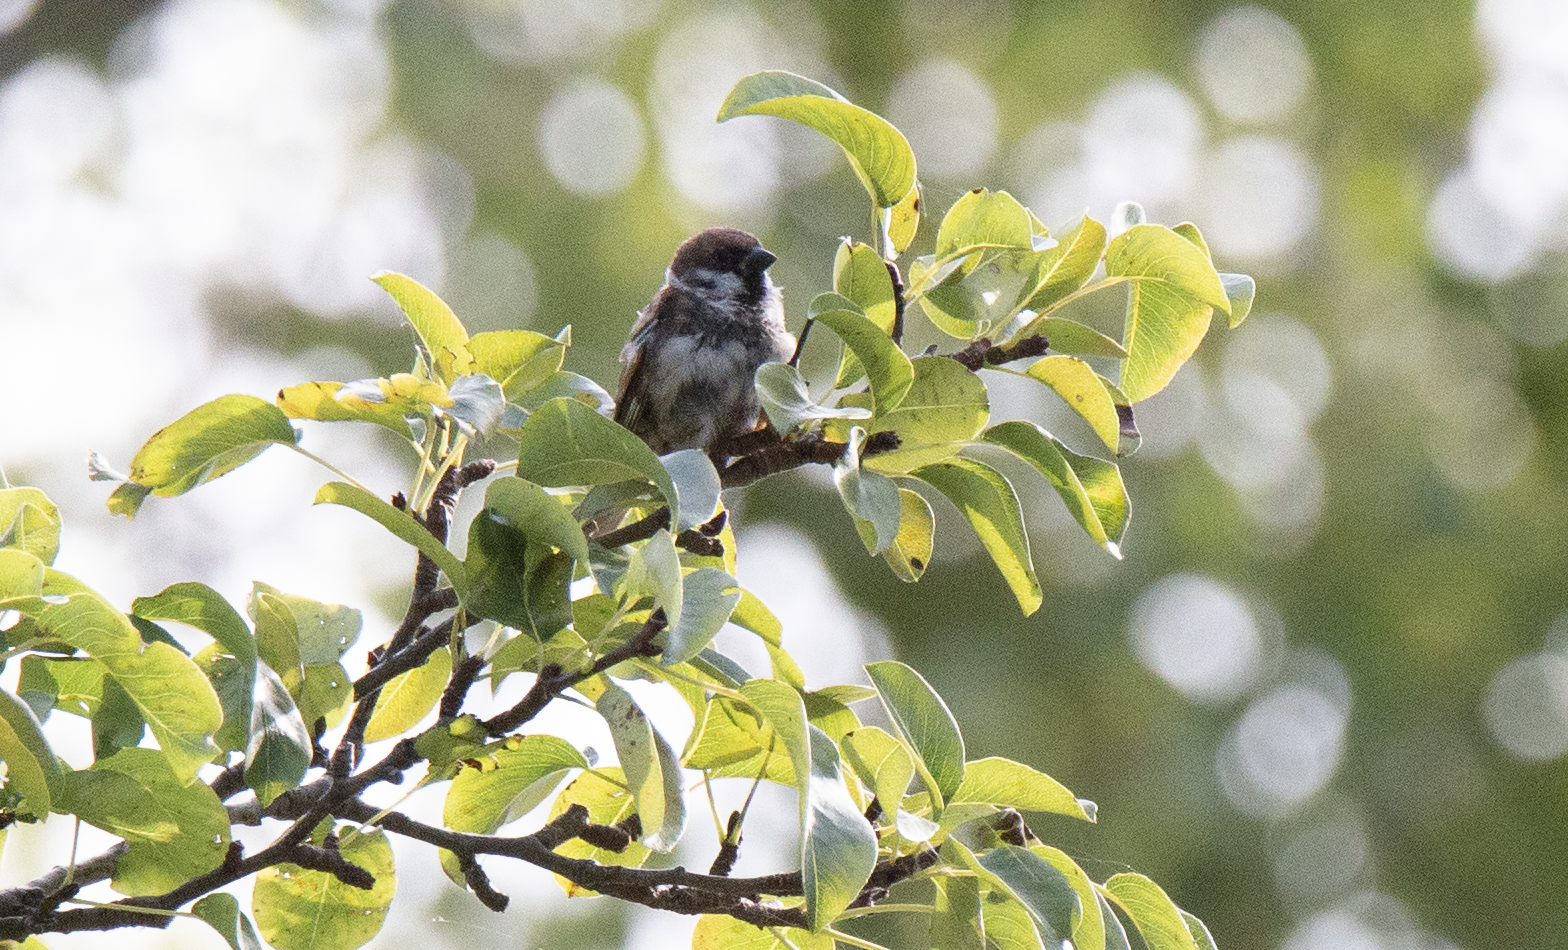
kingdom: Animalia
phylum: Chordata
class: Aves
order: Passeriformes
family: Passeridae
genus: Passer
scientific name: Passer montanus
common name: Eurasian tree sparrow
